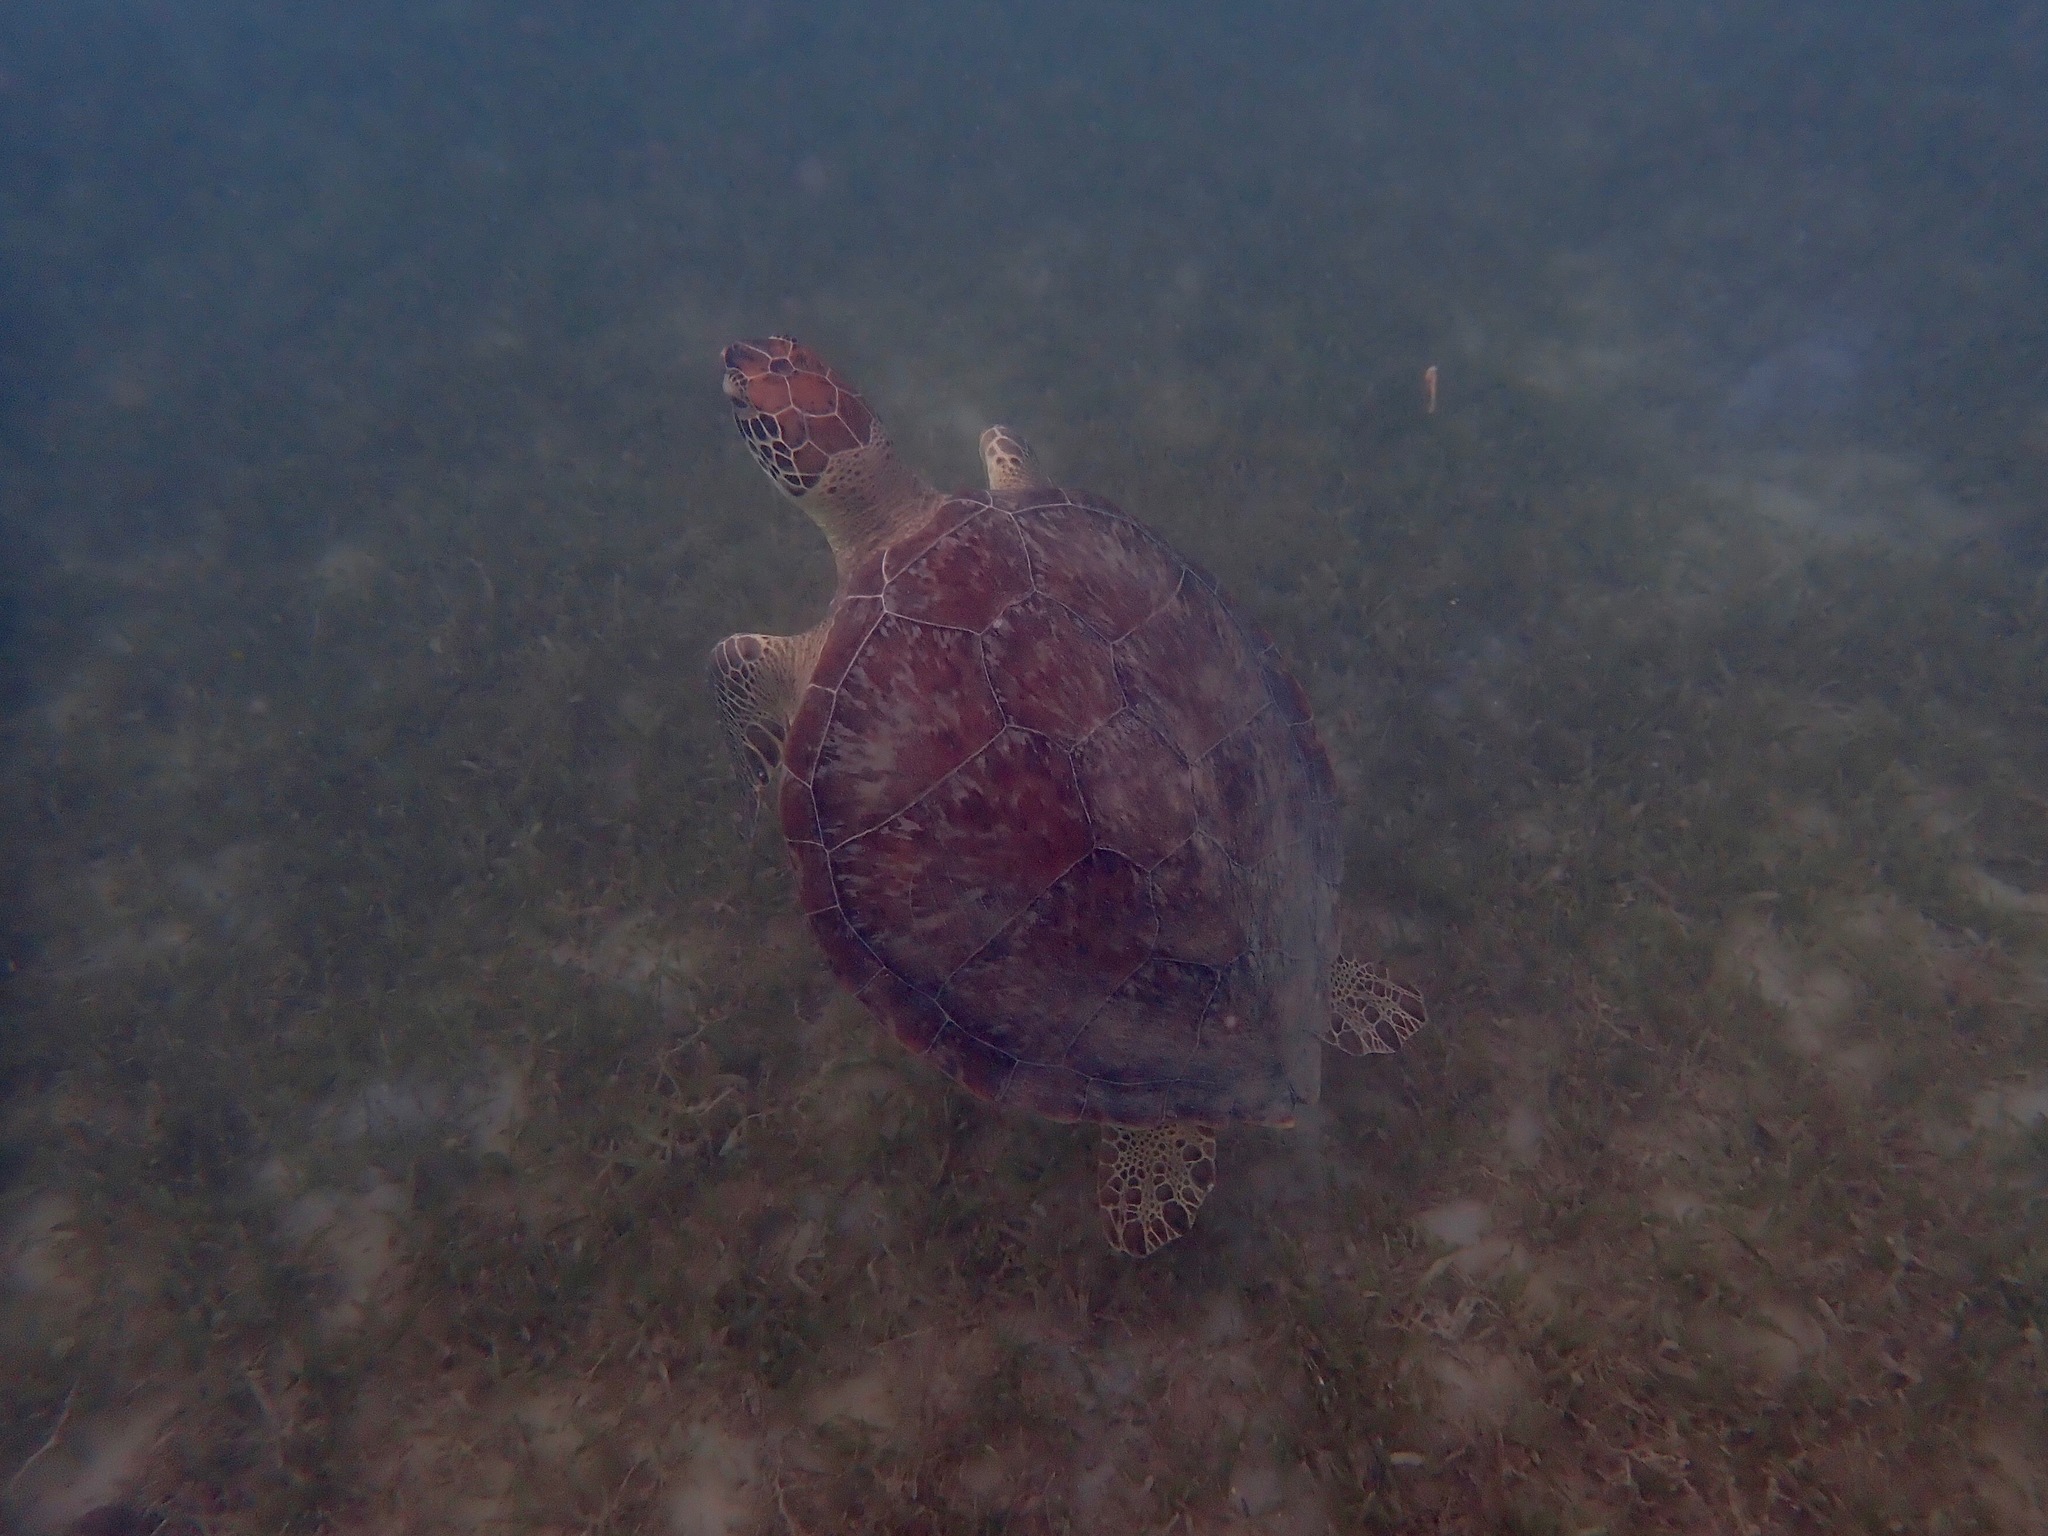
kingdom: Animalia
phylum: Chordata
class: Testudines
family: Cheloniidae
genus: Chelonia
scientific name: Chelonia mydas
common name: Green turtle
